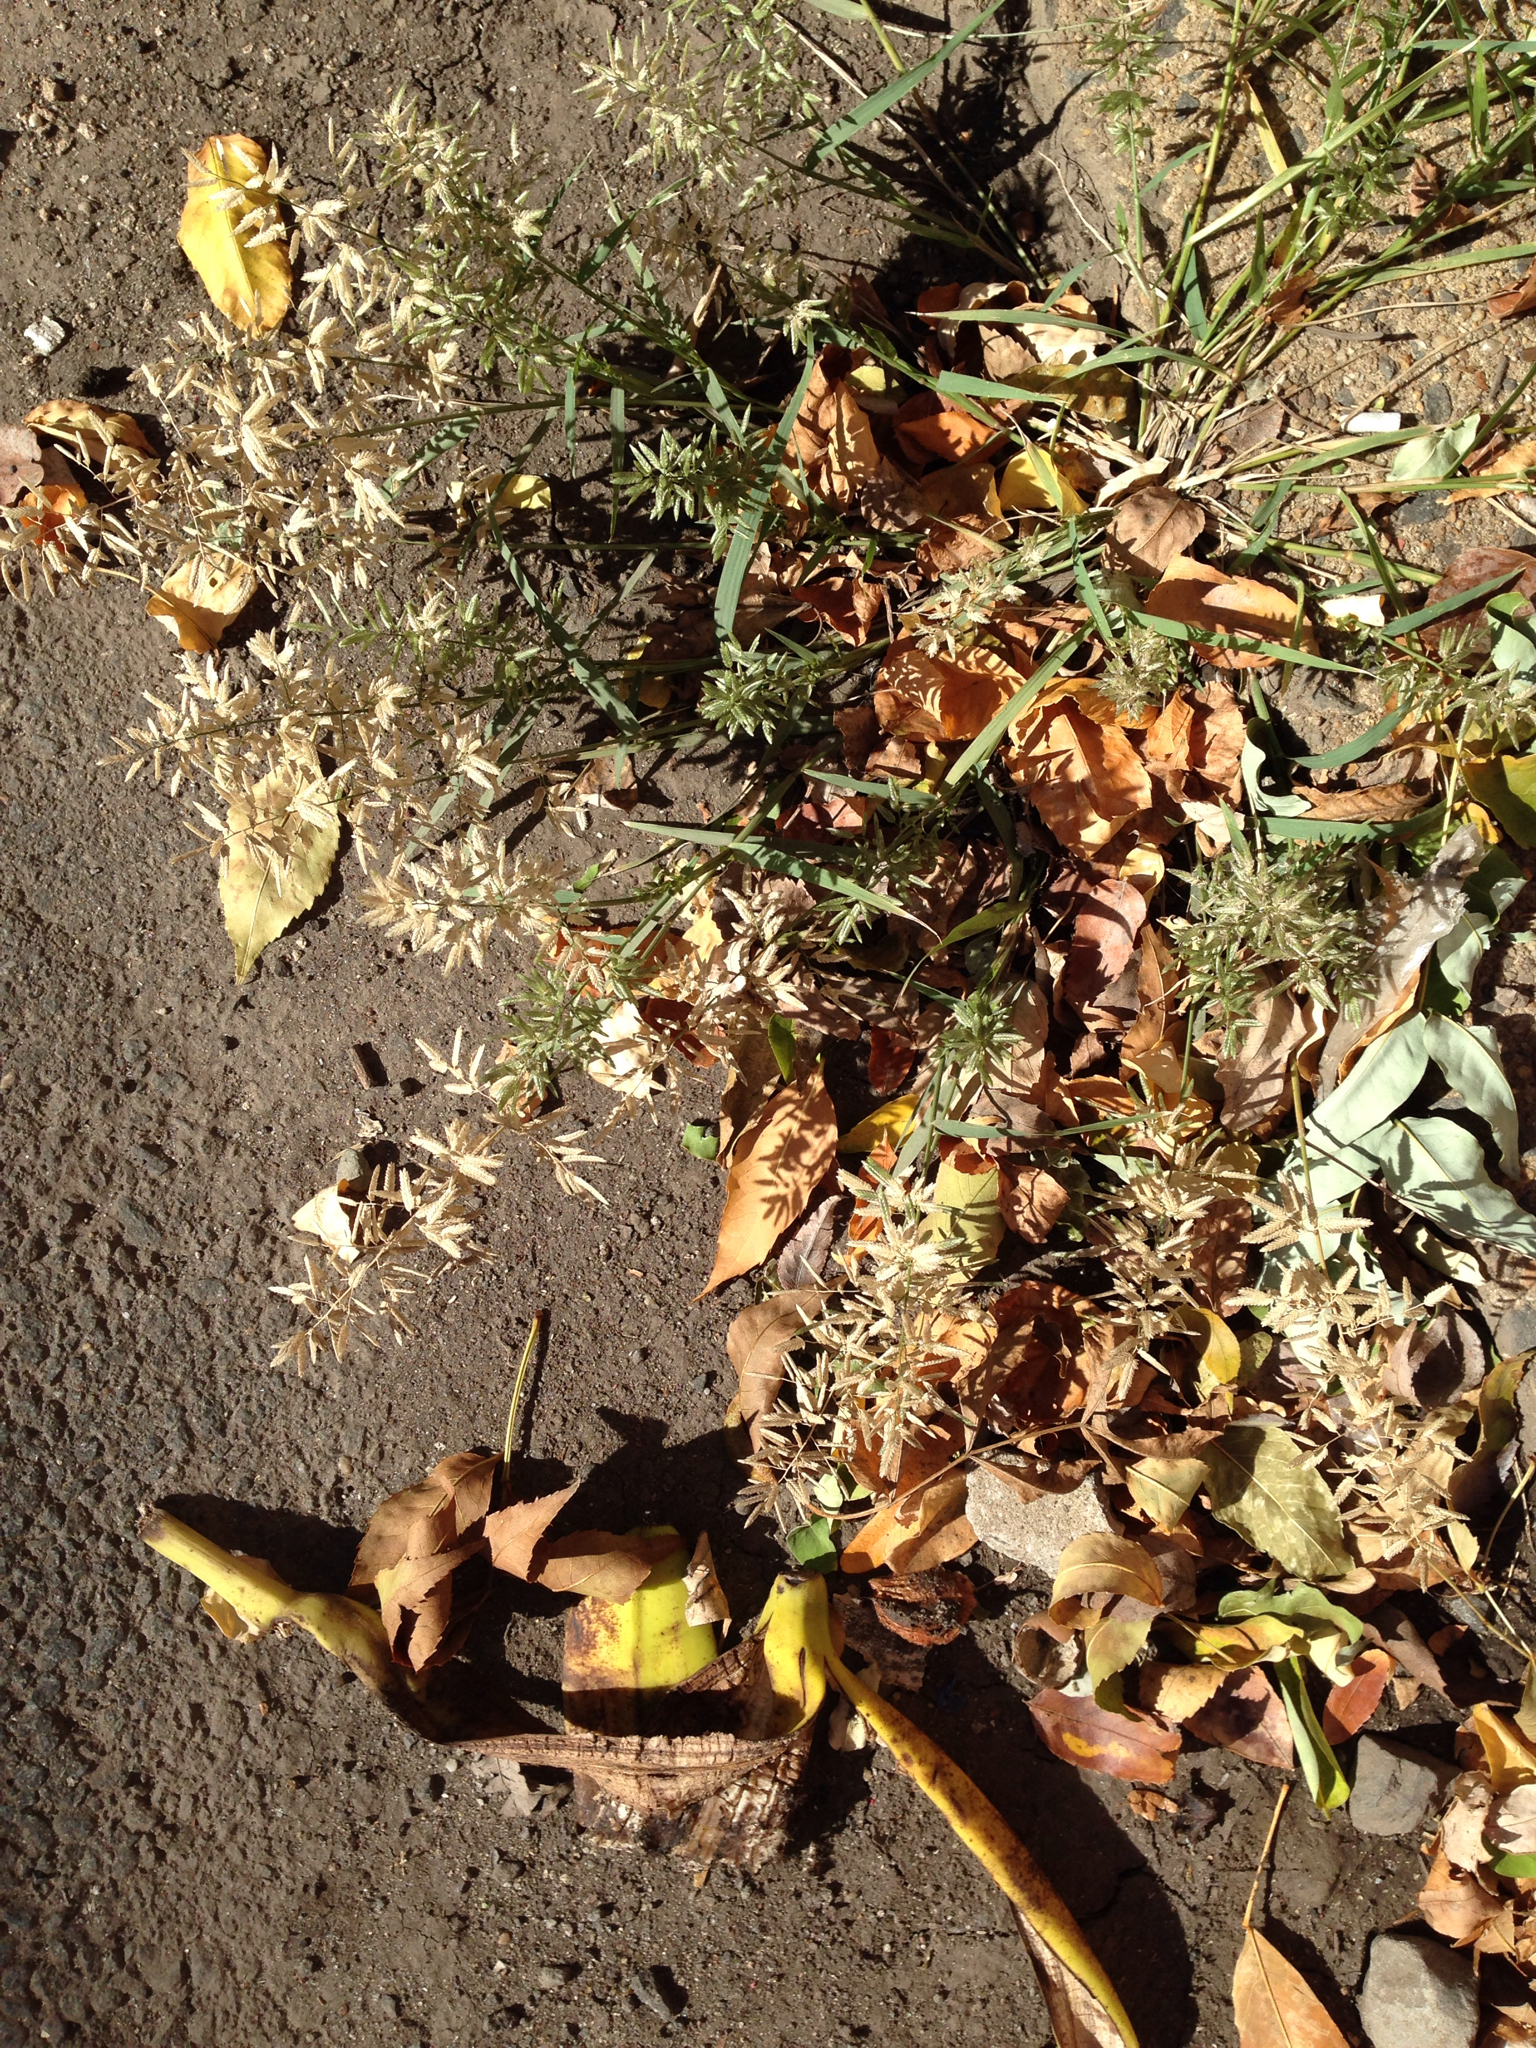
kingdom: Plantae
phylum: Tracheophyta
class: Liliopsida
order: Poales
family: Poaceae
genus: Eragrostis
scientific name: Eragrostis cilianensis
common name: Stinkgrass
